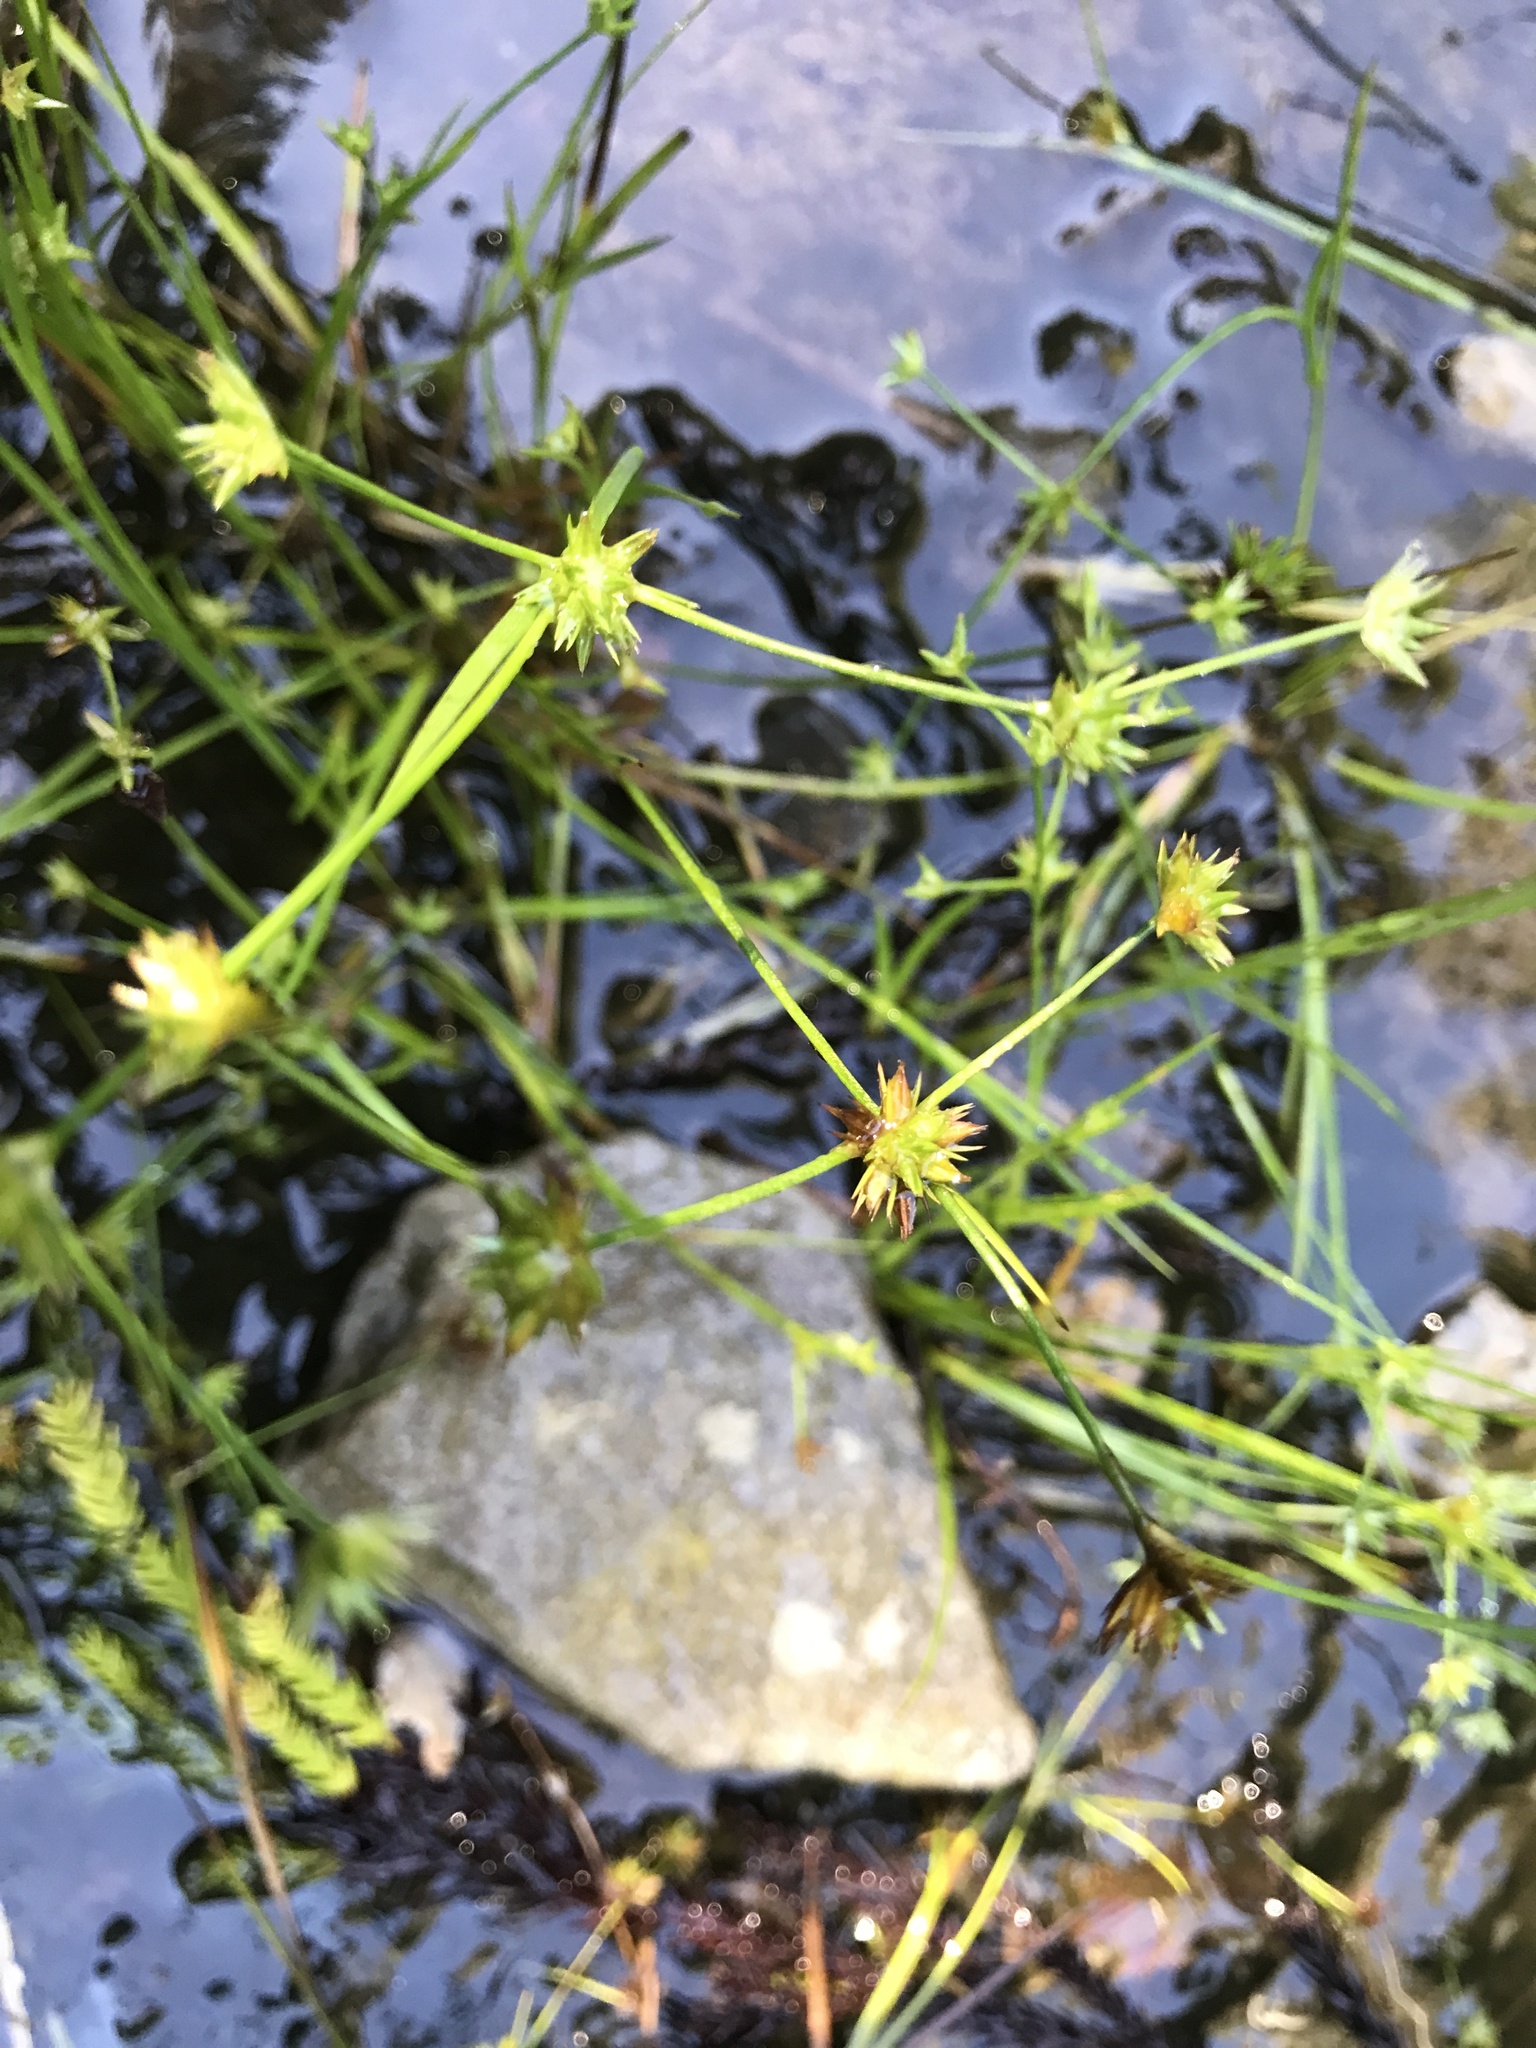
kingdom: Plantae
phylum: Tracheophyta
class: Liliopsida
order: Poales
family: Juncaceae
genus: Juncus
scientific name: Juncus prismatocarpus
